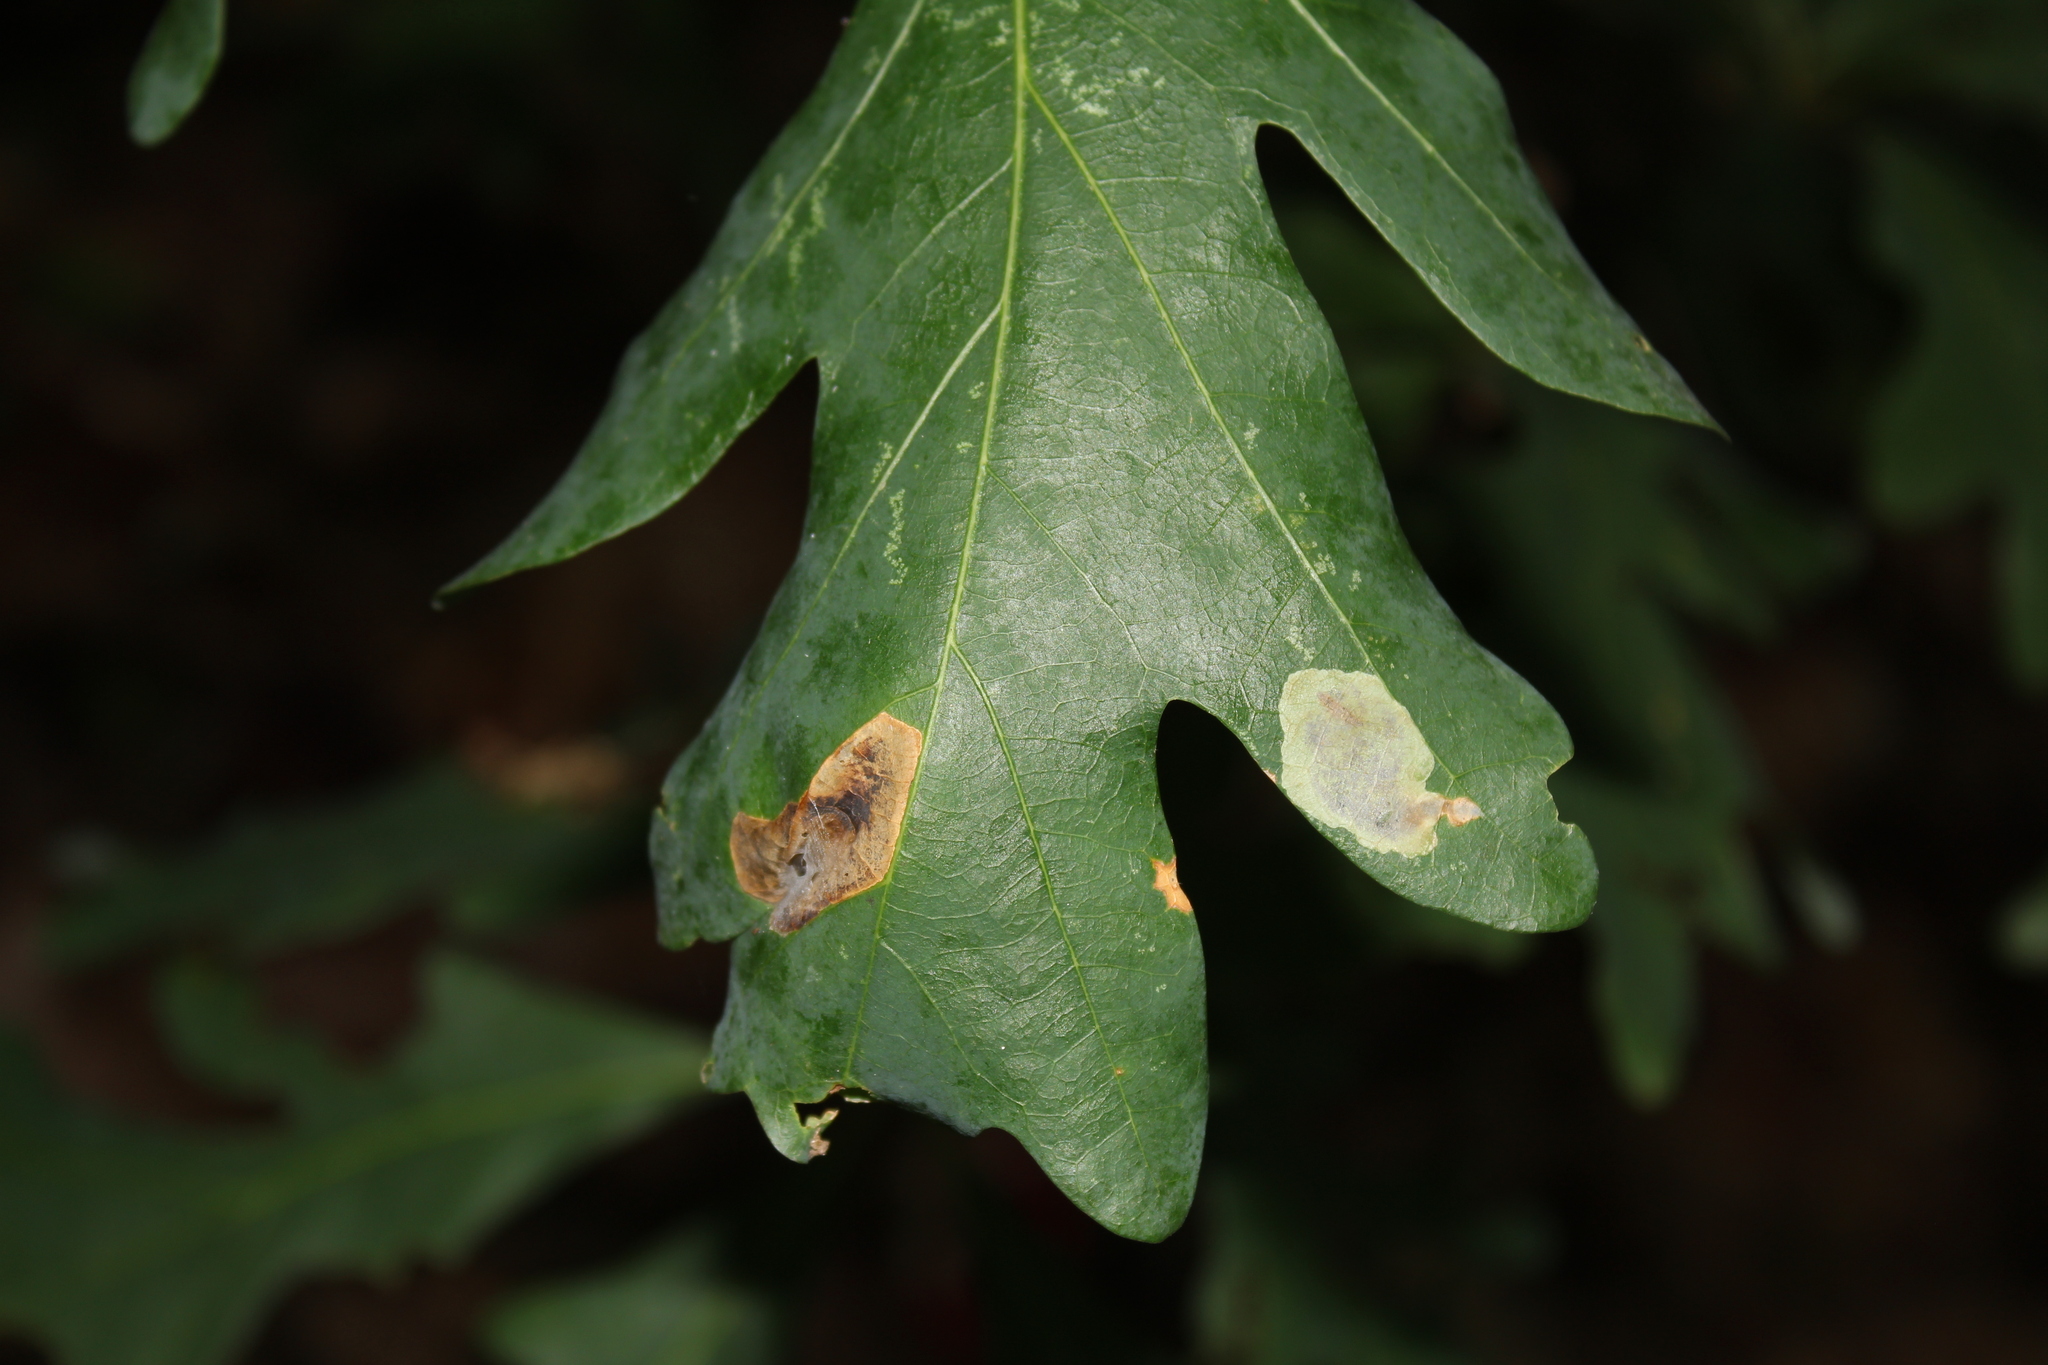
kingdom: Animalia
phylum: Arthropoda
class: Insecta
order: Lepidoptera
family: Gracillariidae
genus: Cameraria
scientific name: Cameraria
